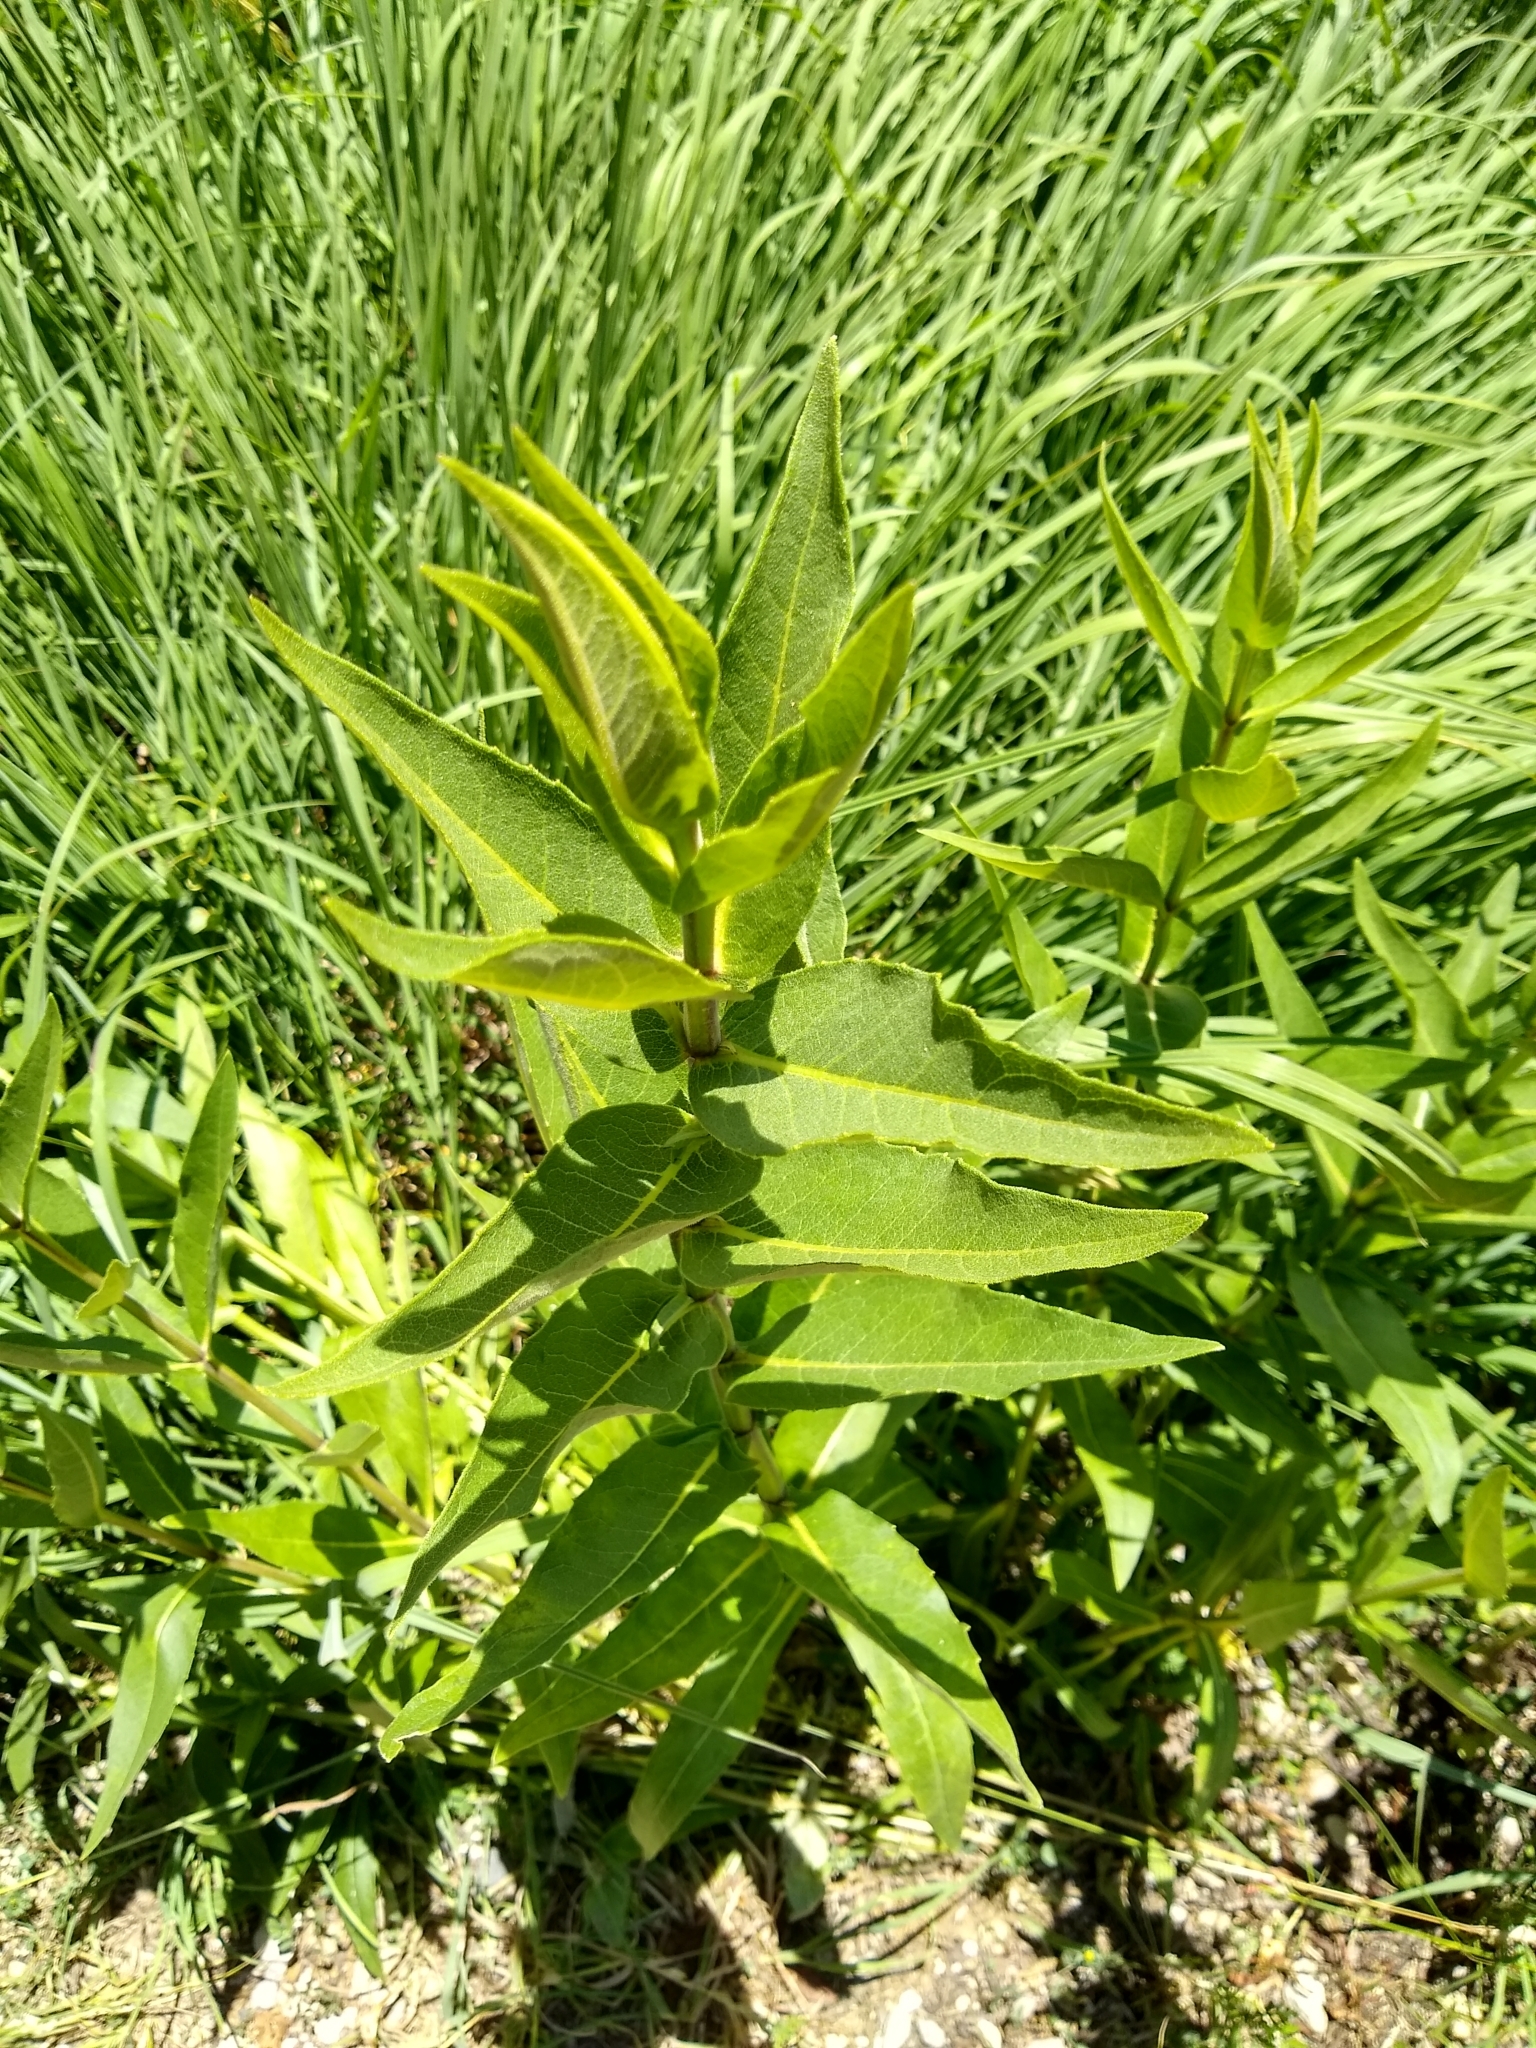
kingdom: Plantae
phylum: Tracheophyta
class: Magnoliopsida
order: Asterales
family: Asteraceae
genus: Silphium
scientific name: Silphium integrifolium
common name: Whole-leaf rosinweed
